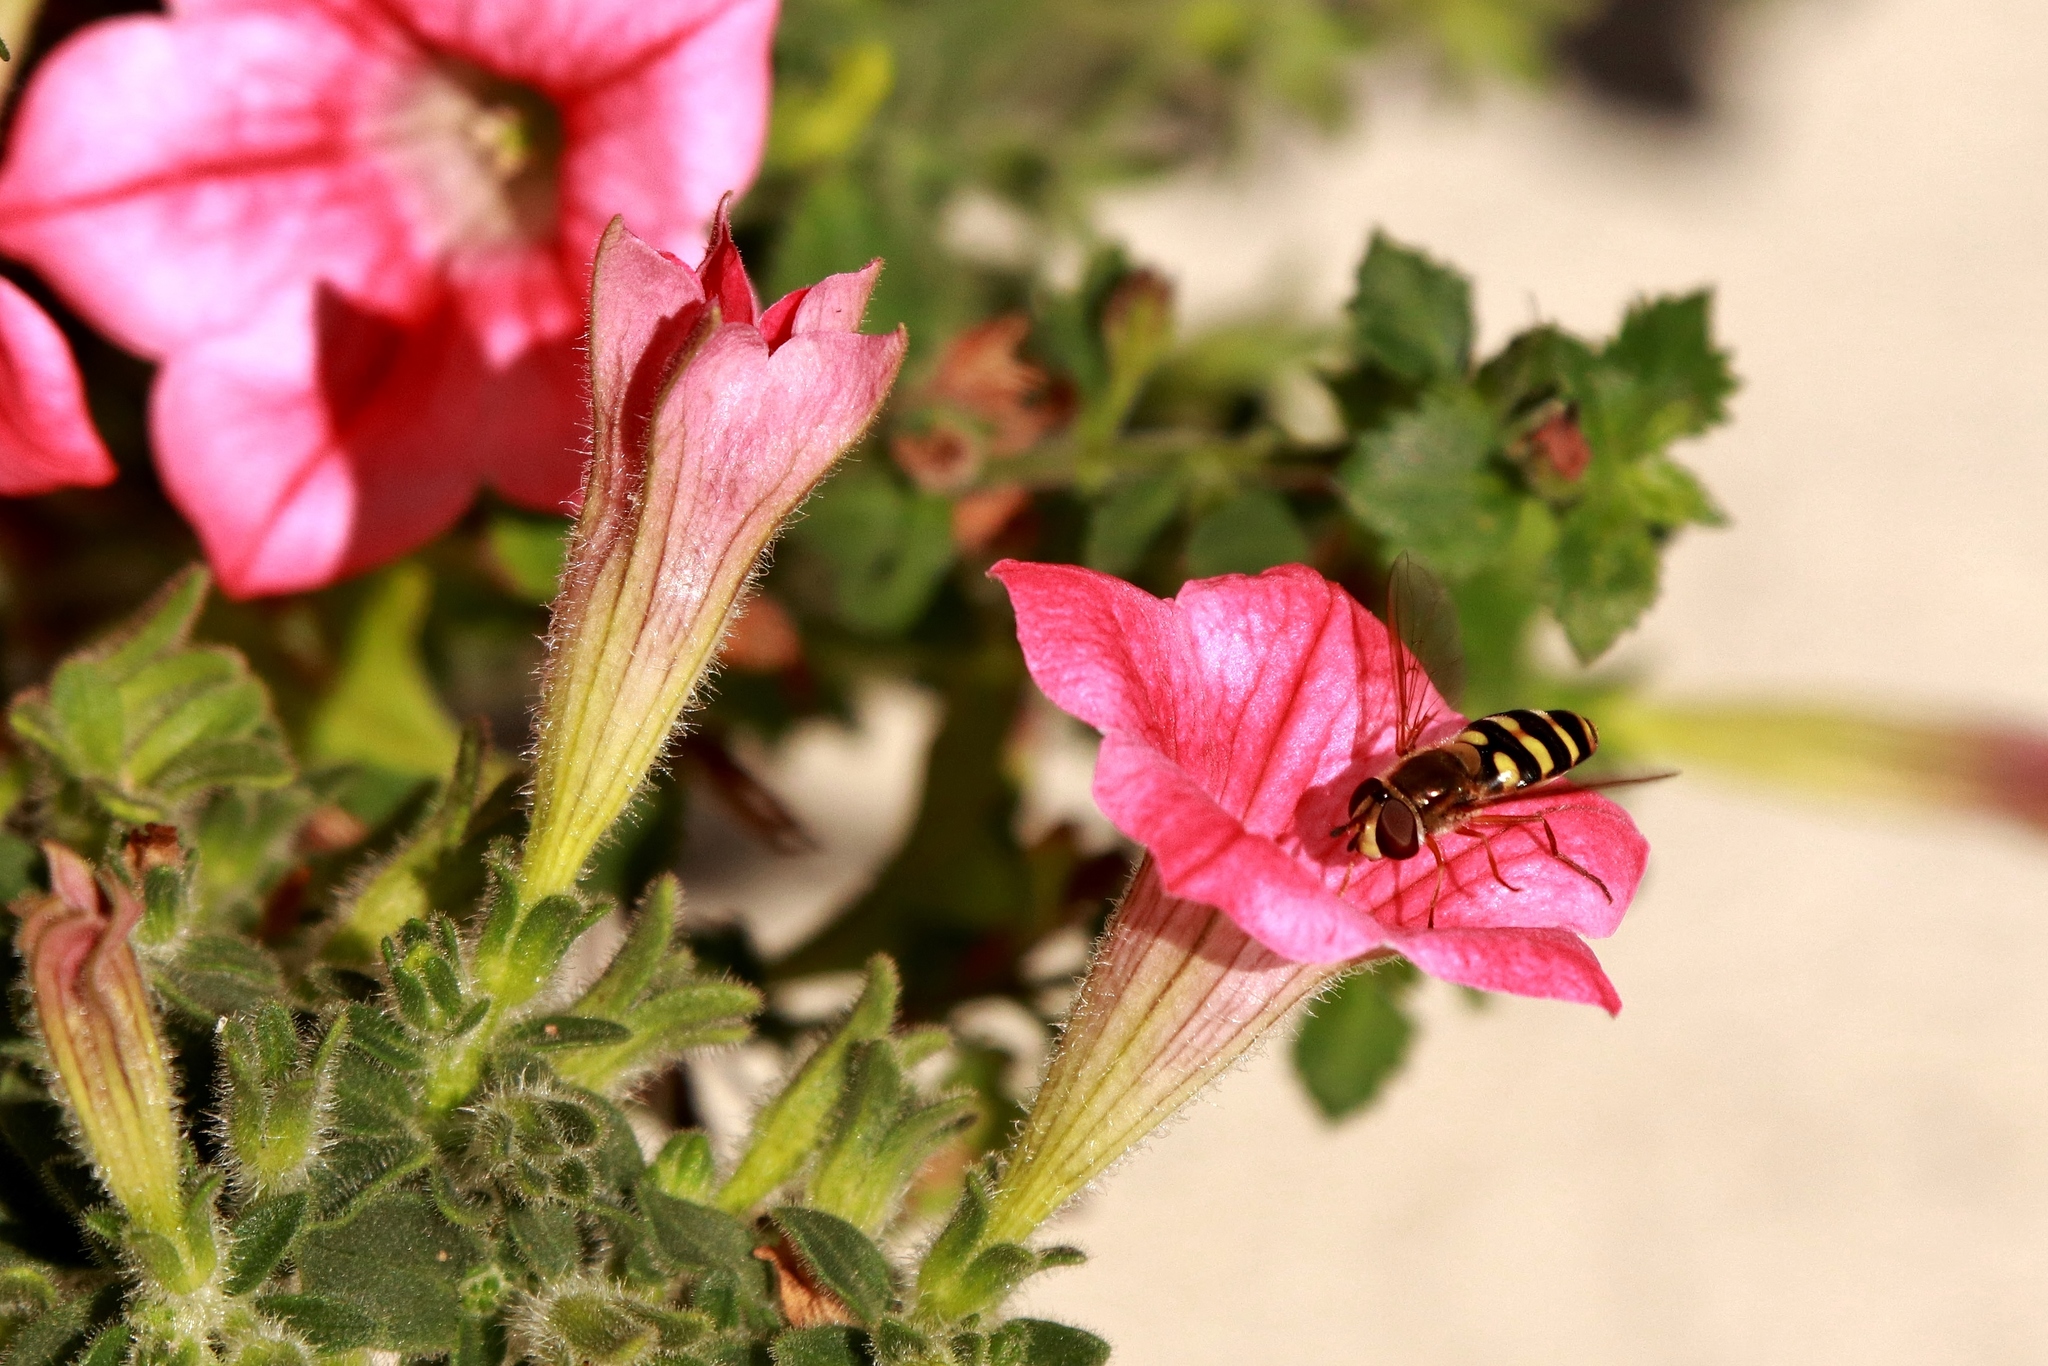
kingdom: Animalia
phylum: Arthropoda
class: Insecta
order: Diptera
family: Syrphidae
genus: Eupeodes
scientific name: Eupeodes fumipennis
